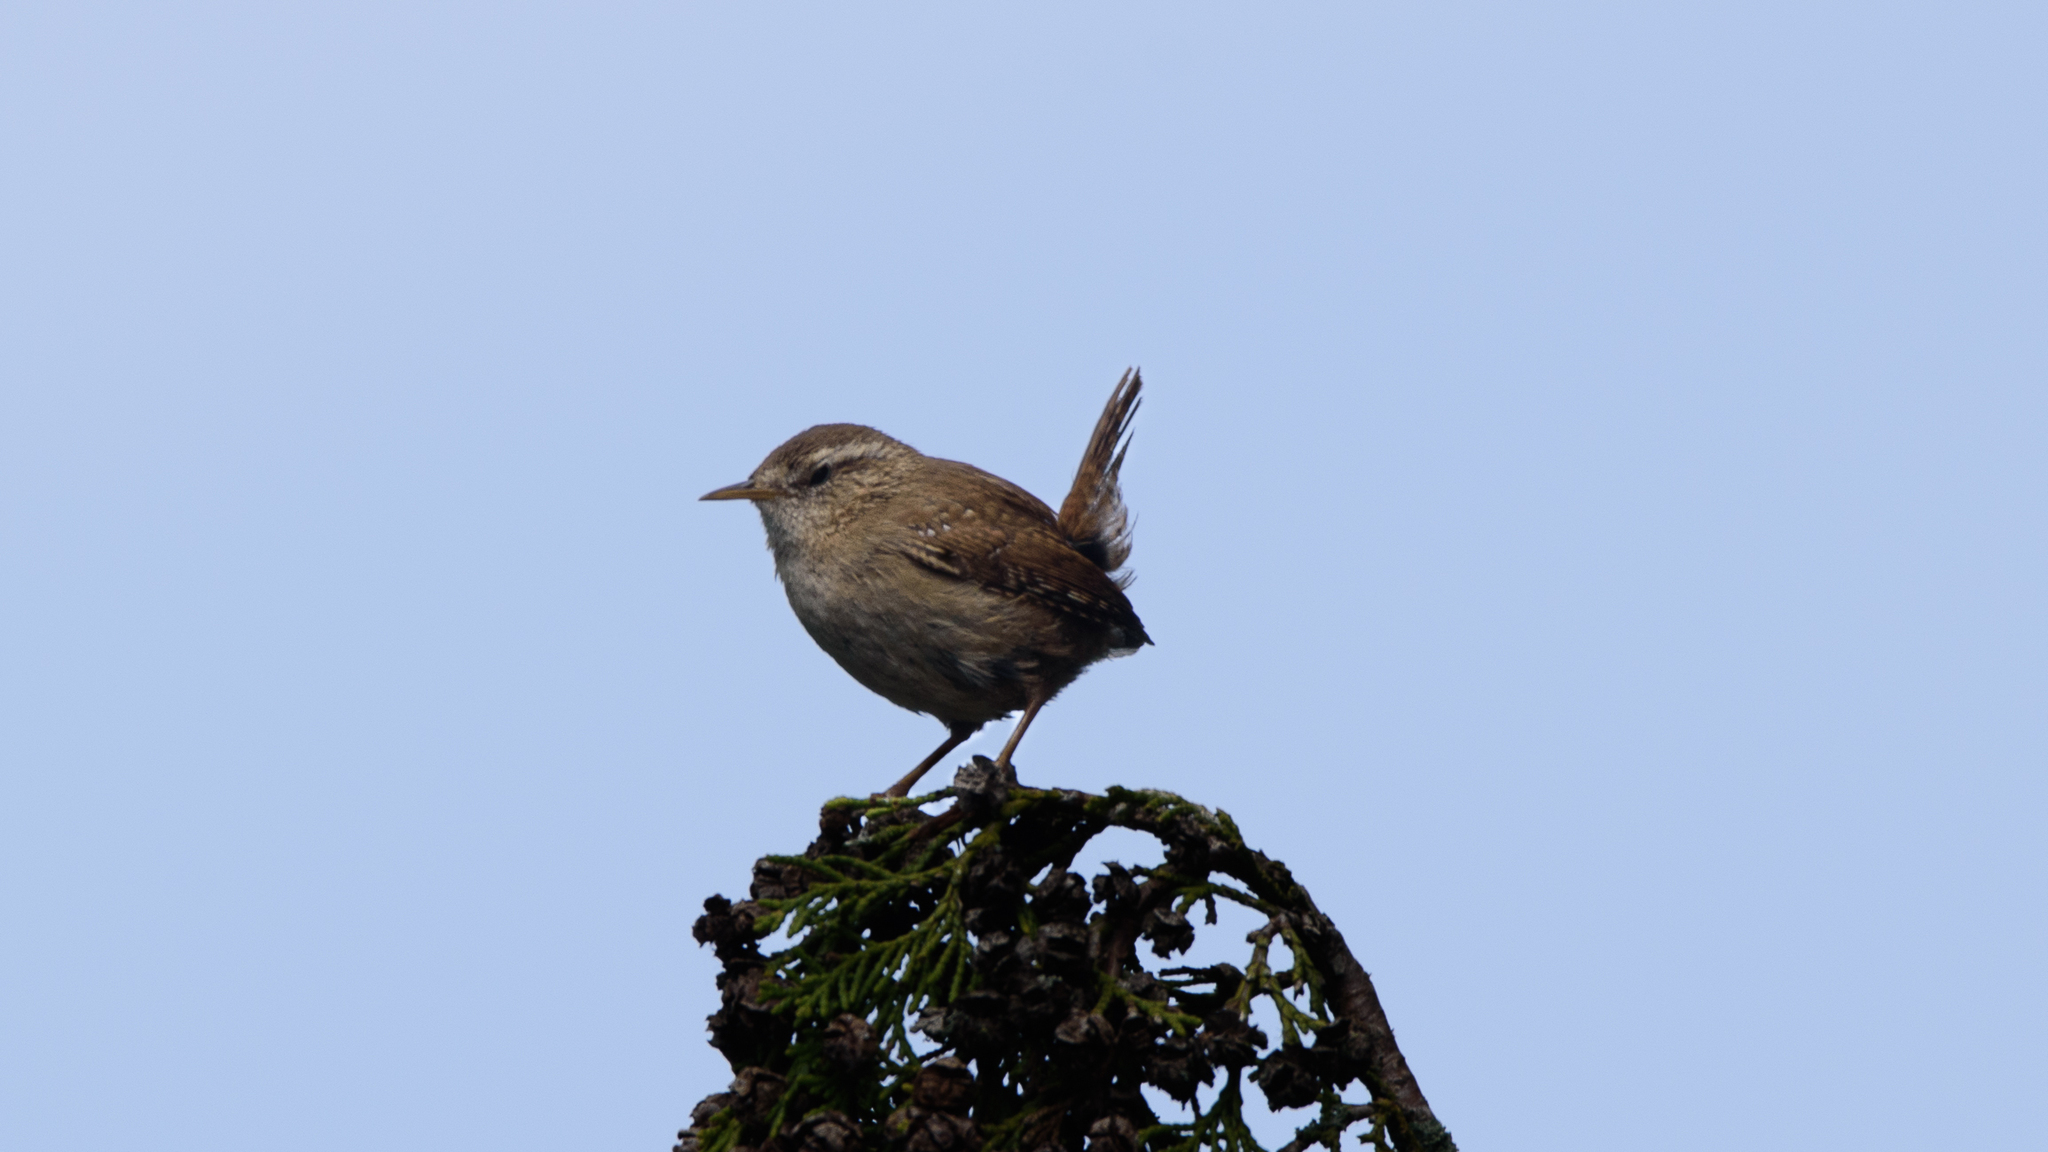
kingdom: Animalia
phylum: Chordata
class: Aves
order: Passeriformes
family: Troglodytidae
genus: Troglodytes
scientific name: Troglodytes troglodytes
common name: Eurasian wren
